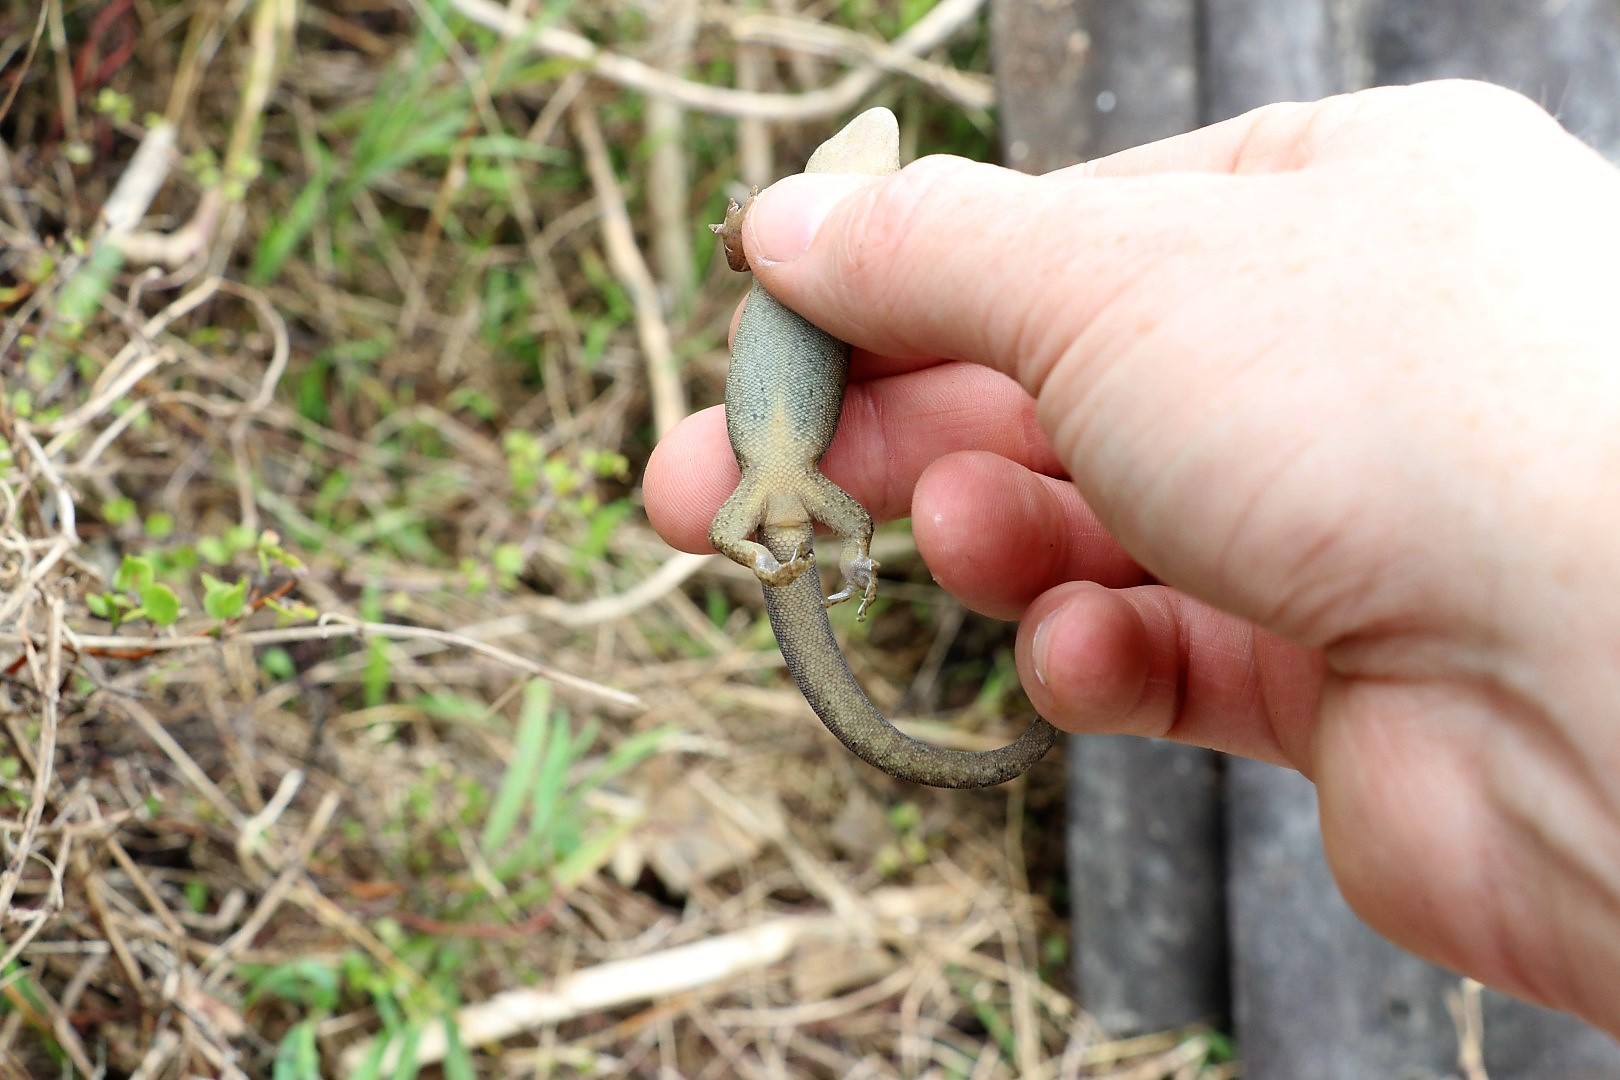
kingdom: Animalia
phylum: Chordata
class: Squamata
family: Diplodactylidae
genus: Woodworthia
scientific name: Woodworthia maculata
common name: Raukawa gecko
